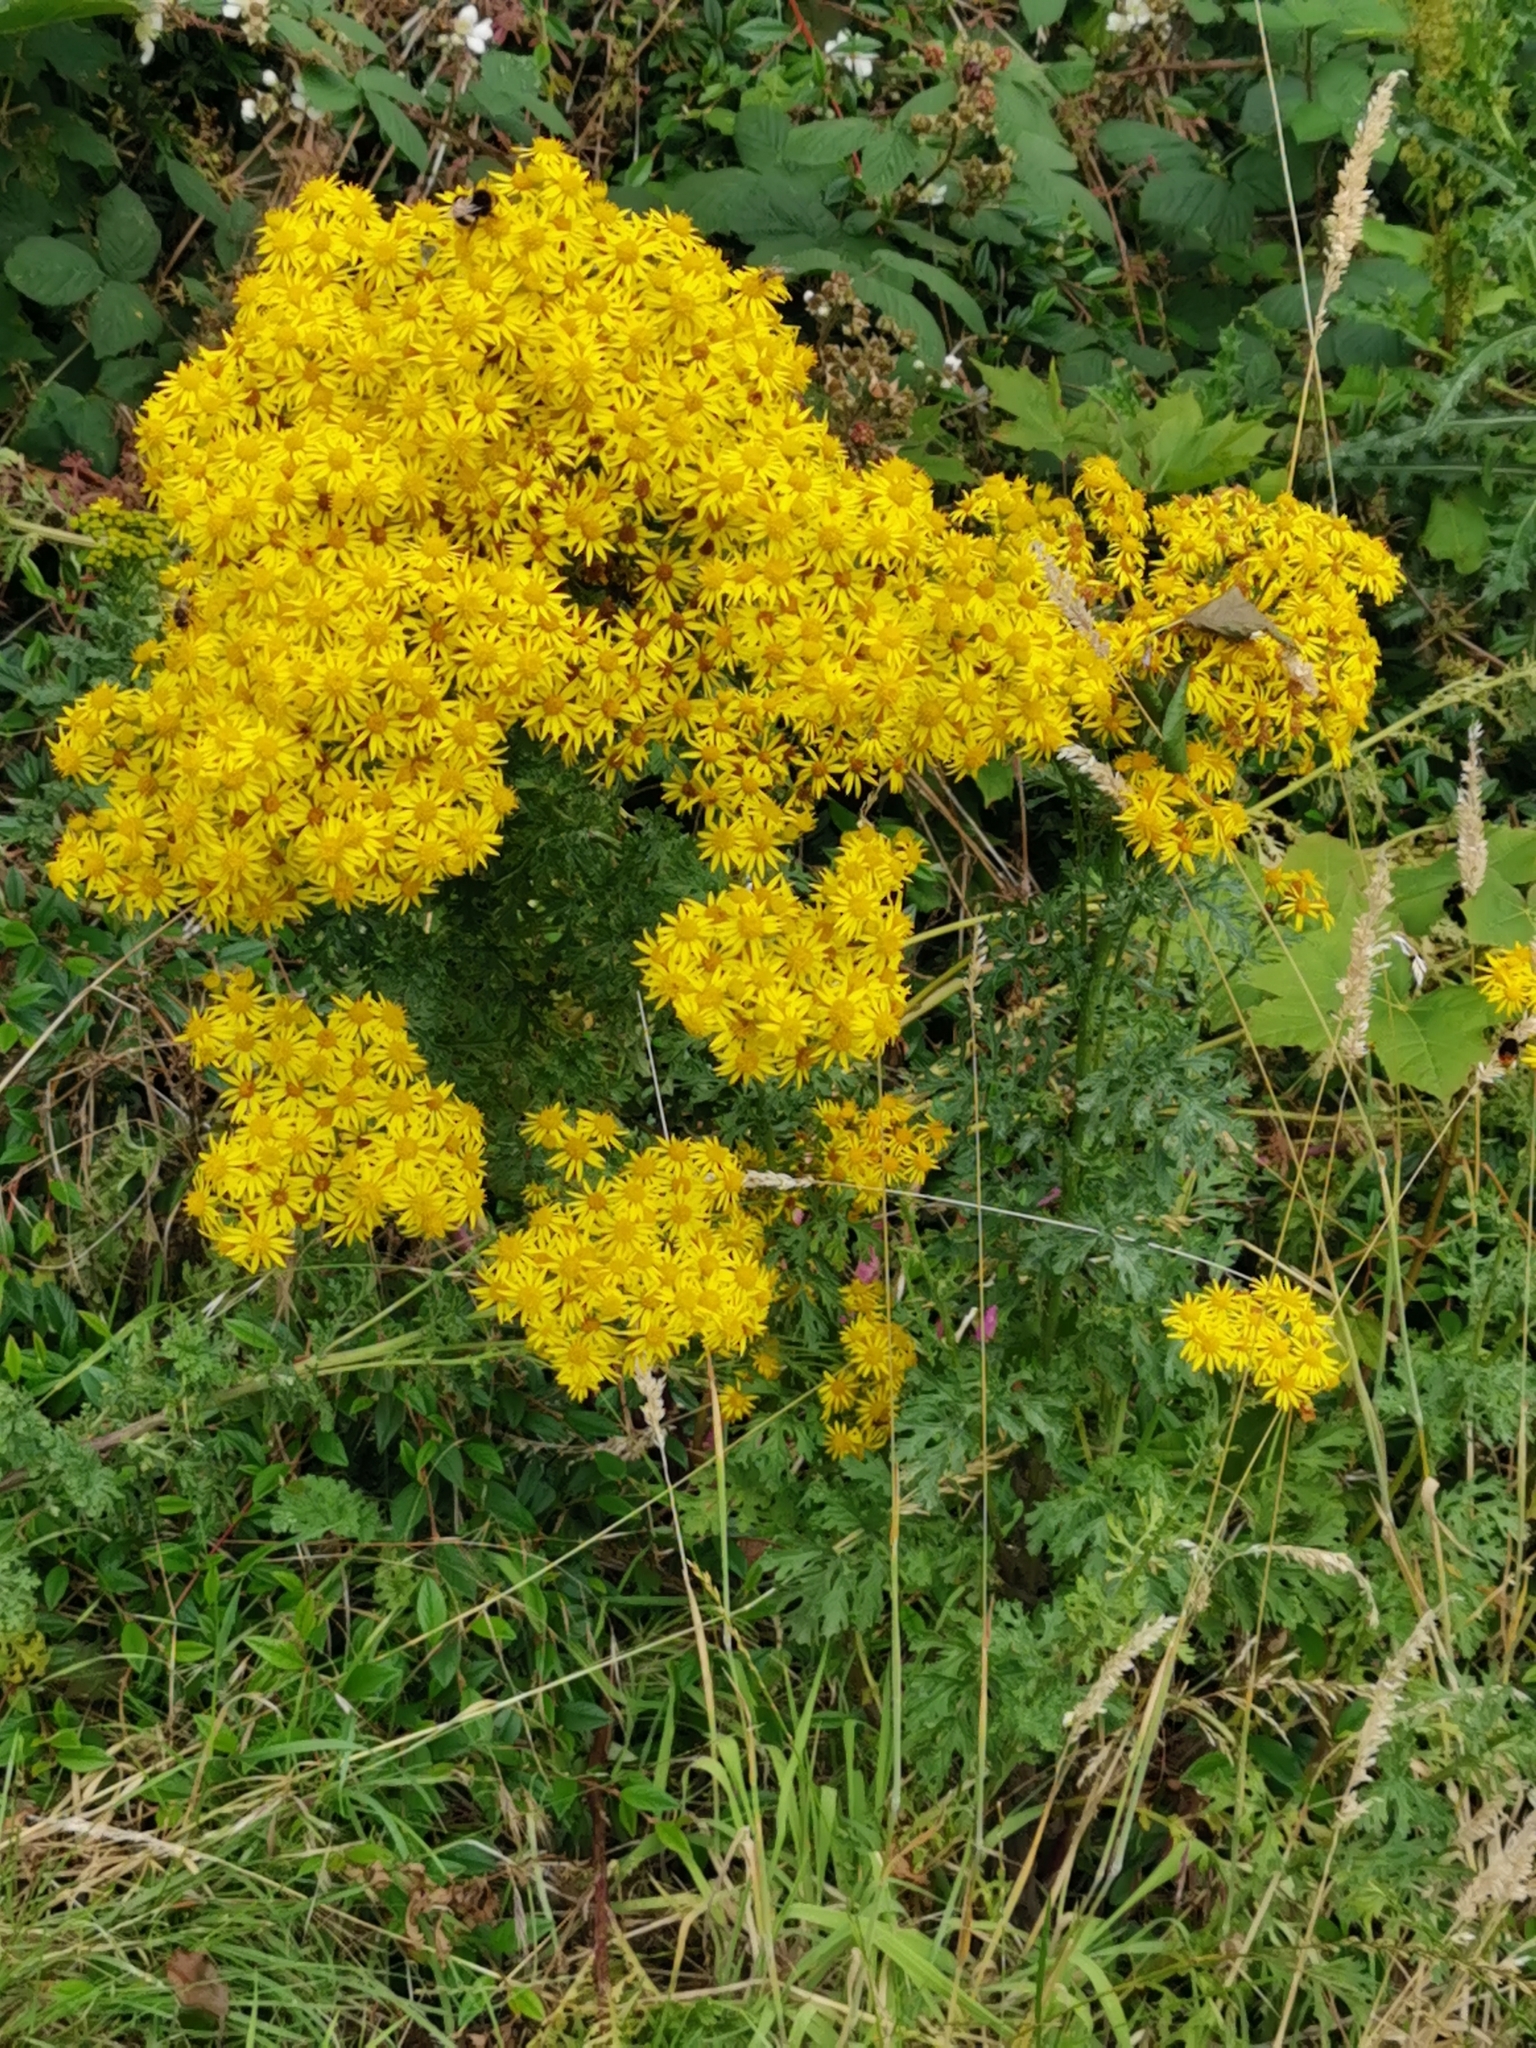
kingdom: Plantae
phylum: Tracheophyta
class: Magnoliopsida
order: Asterales
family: Asteraceae
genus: Jacobaea
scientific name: Jacobaea vulgaris
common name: Stinking willie
